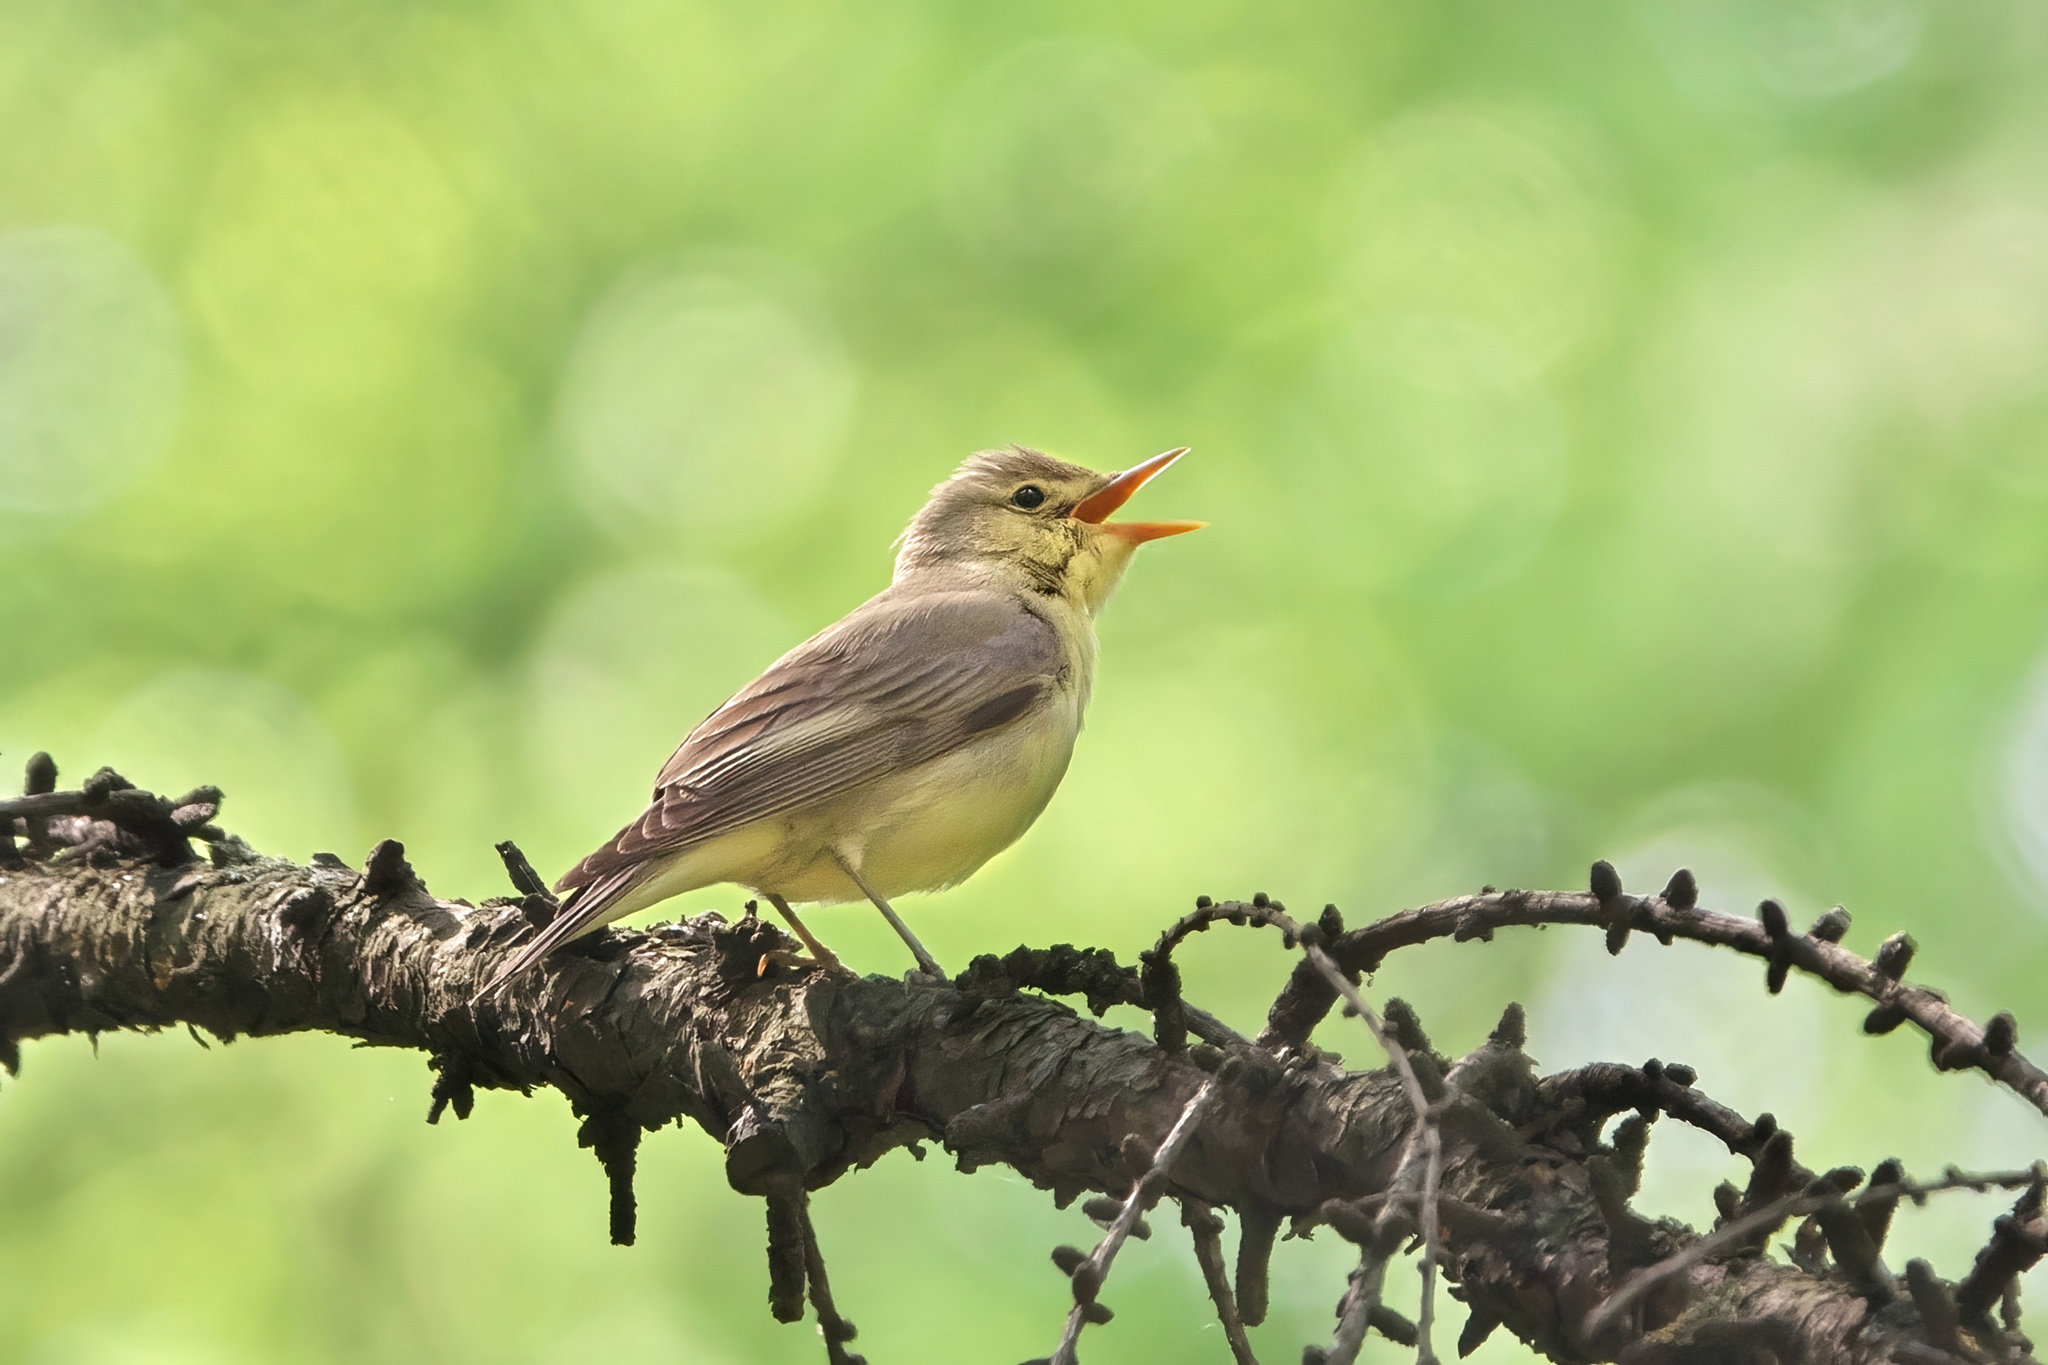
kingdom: Animalia
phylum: Chordata
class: Aves
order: Passeriformes
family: Acrocephalidae
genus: Hippolais
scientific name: Hippolais icterina
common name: Icterine warbler
